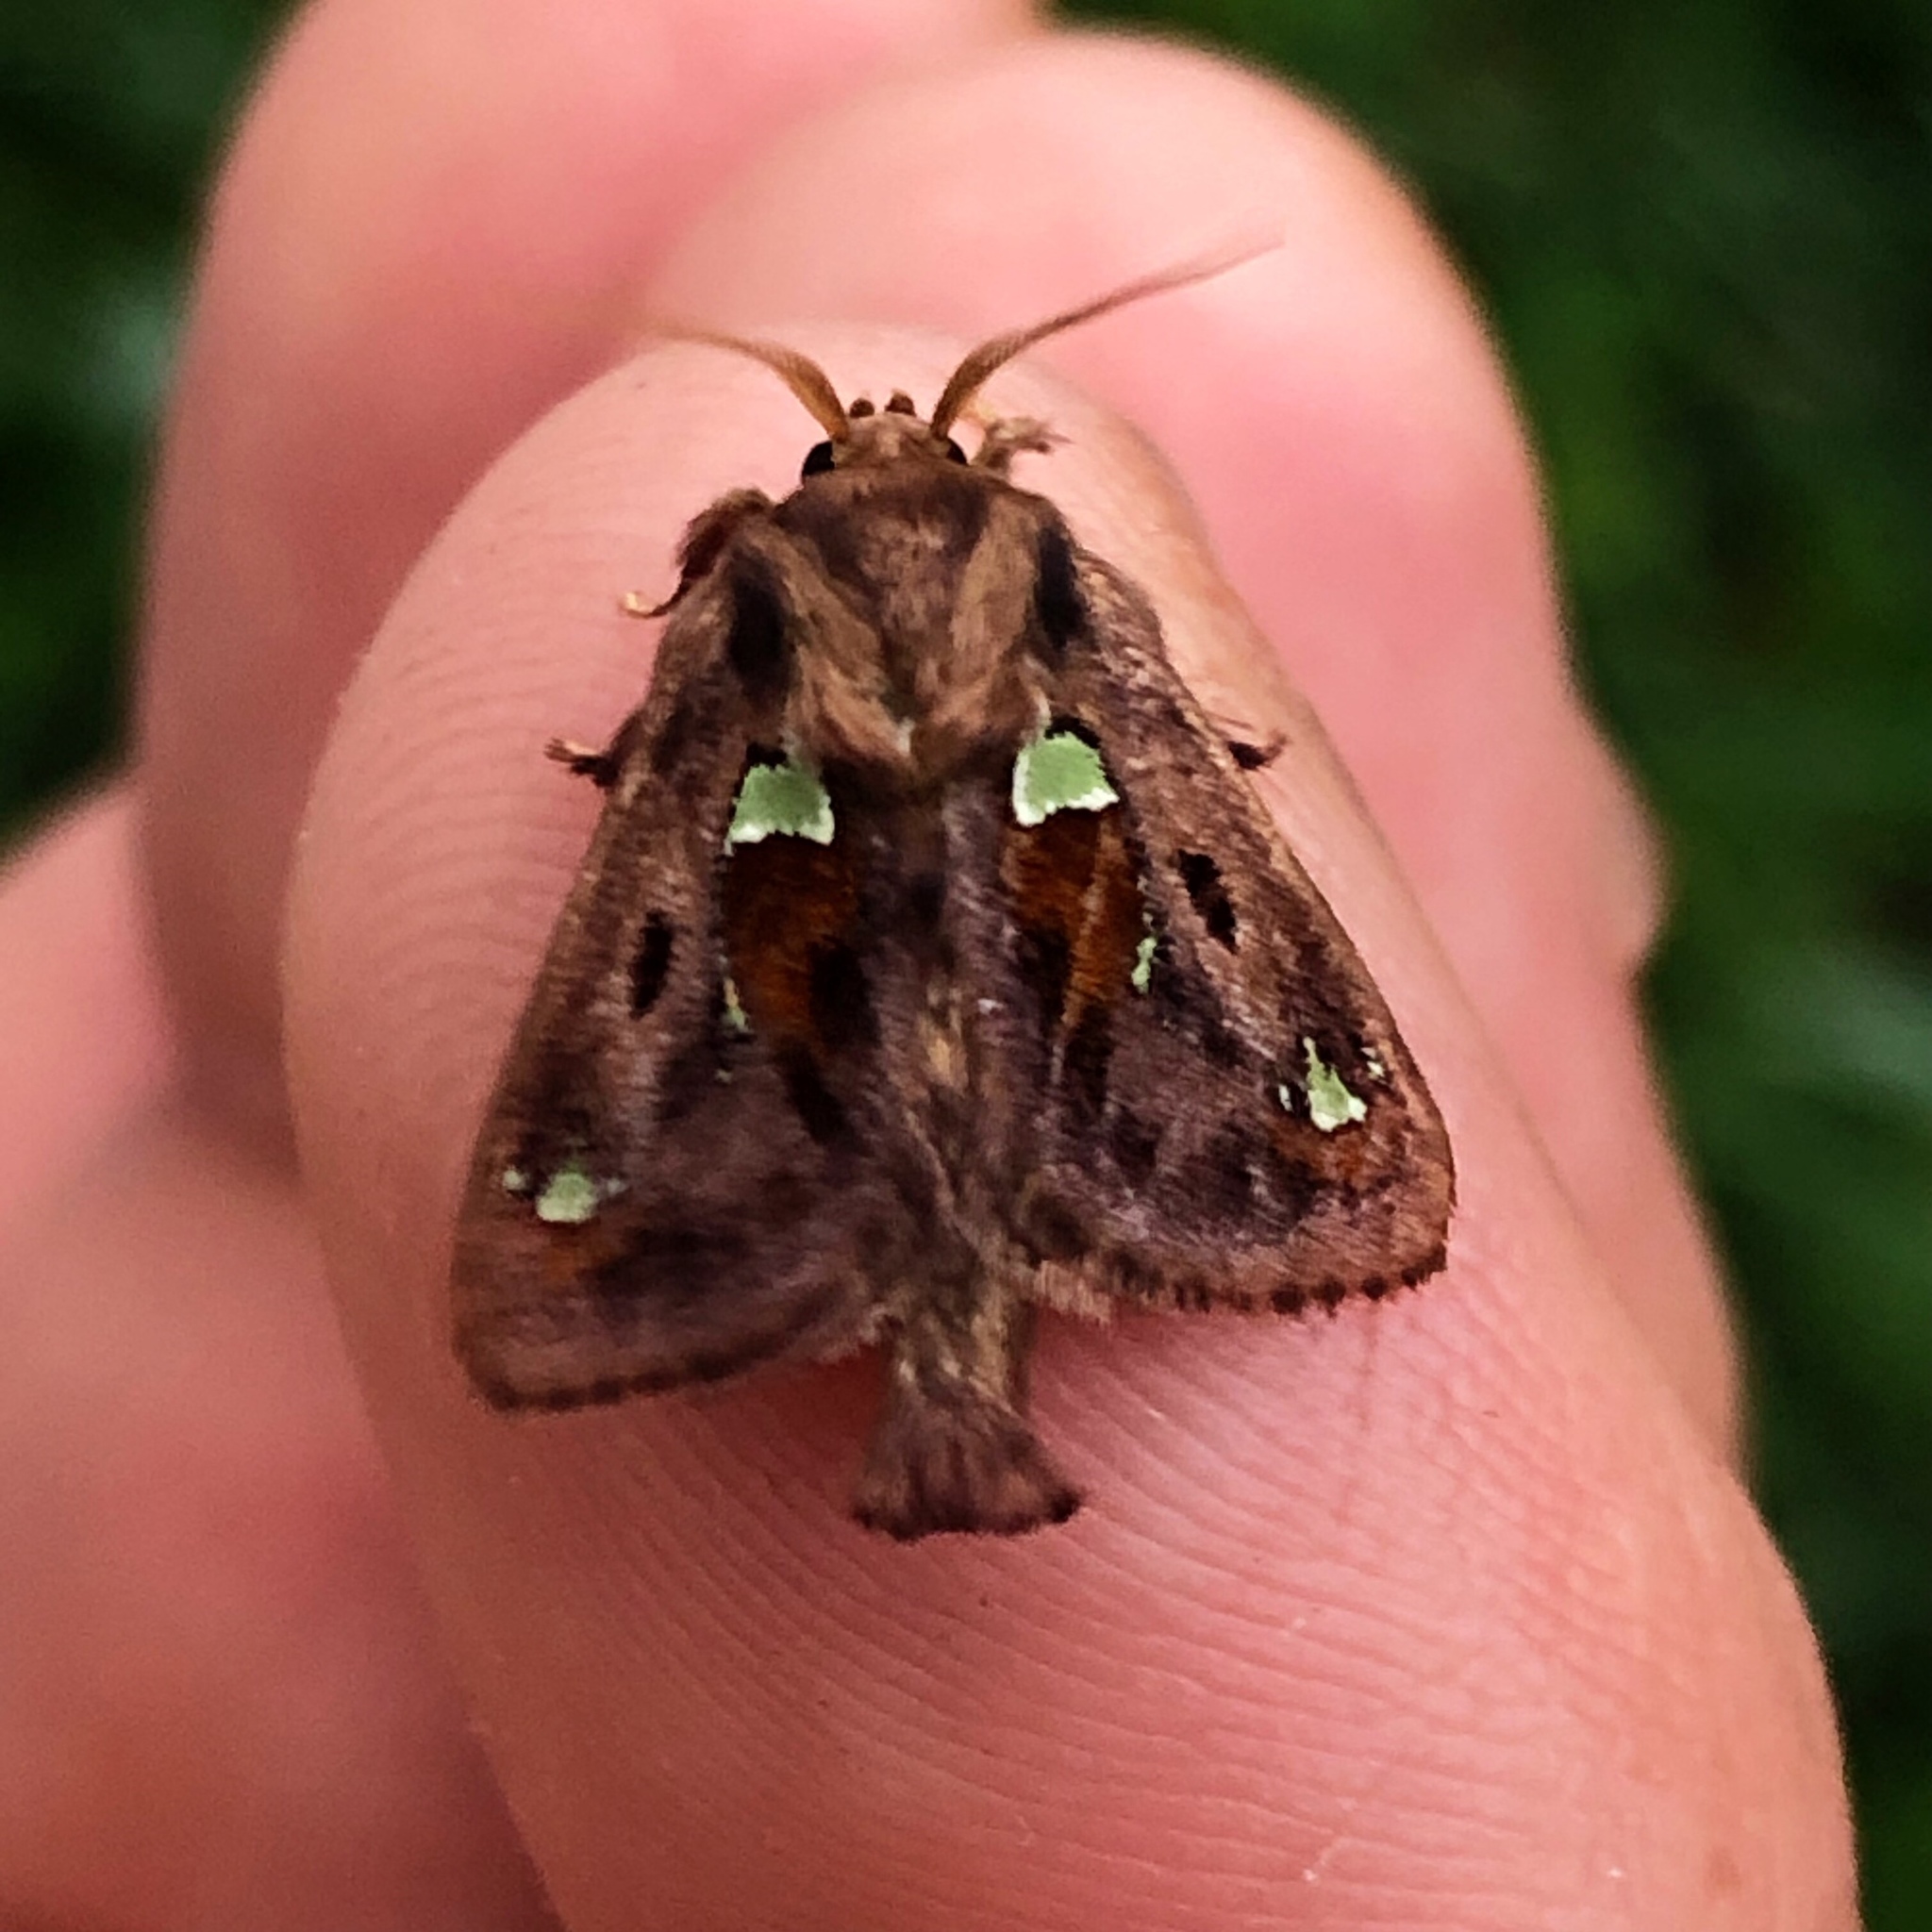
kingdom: Animalia
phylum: Arthropoda
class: Insecta
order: Lepidoptera
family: Limacodidae
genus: Euclea
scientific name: Euclea delphinii
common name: Spiny oak-slug moth
